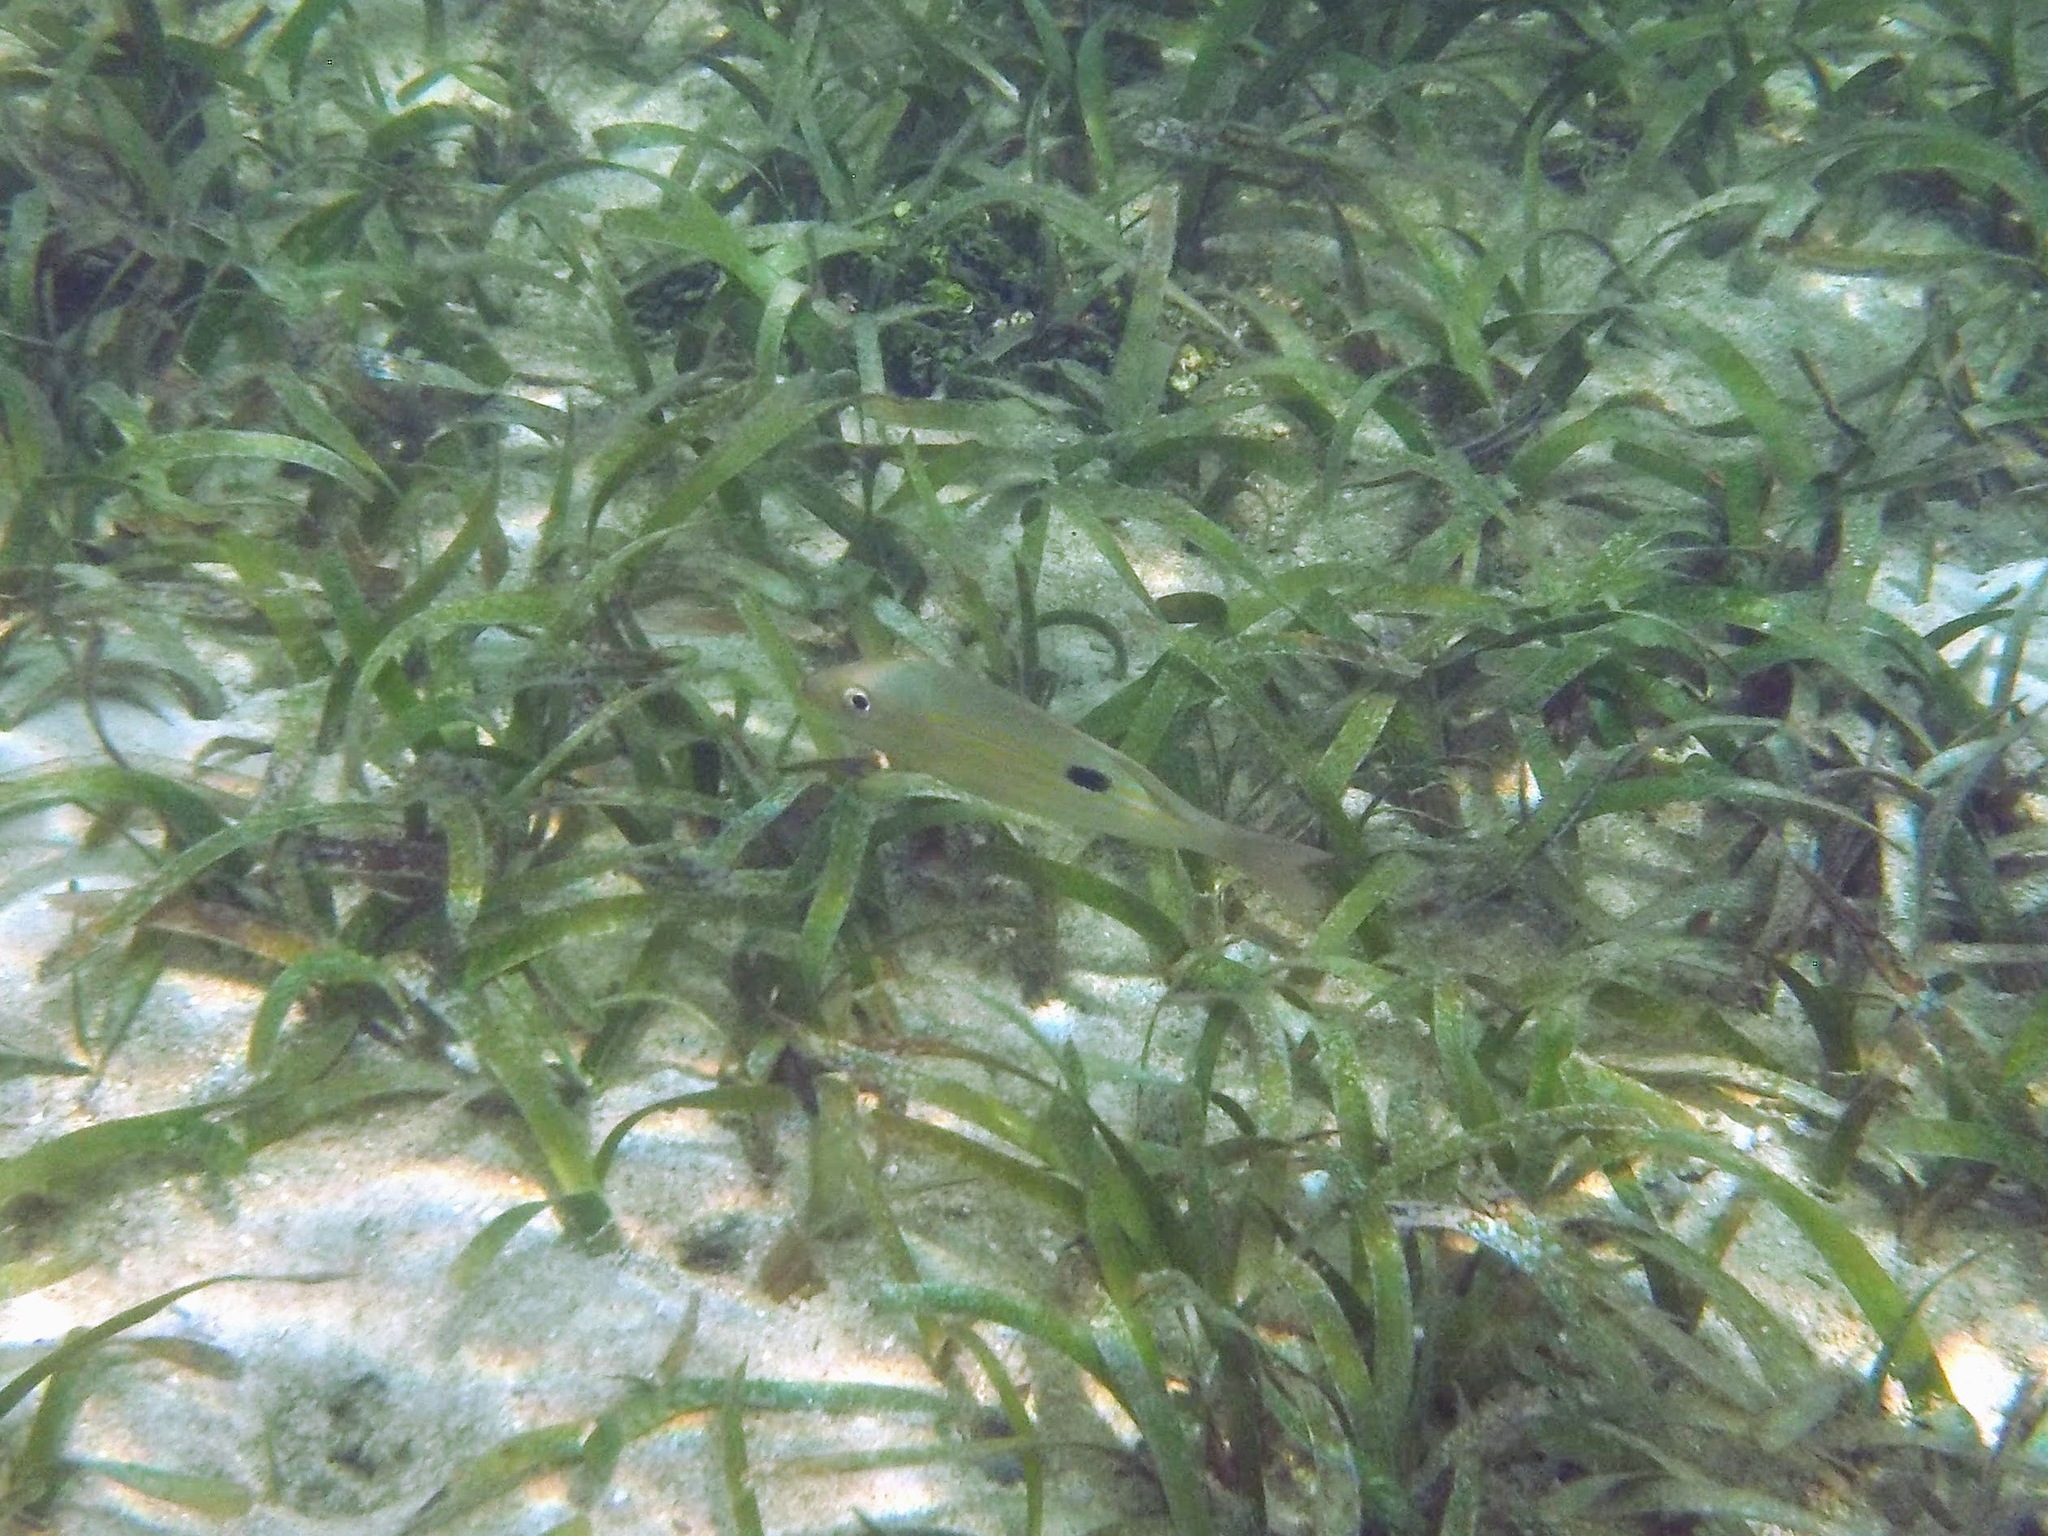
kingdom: Animalia
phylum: Chordata
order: Perciformes
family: Lutjanidae
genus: Lutjanus
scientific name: Lutjanus synagris
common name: Lane snapper
